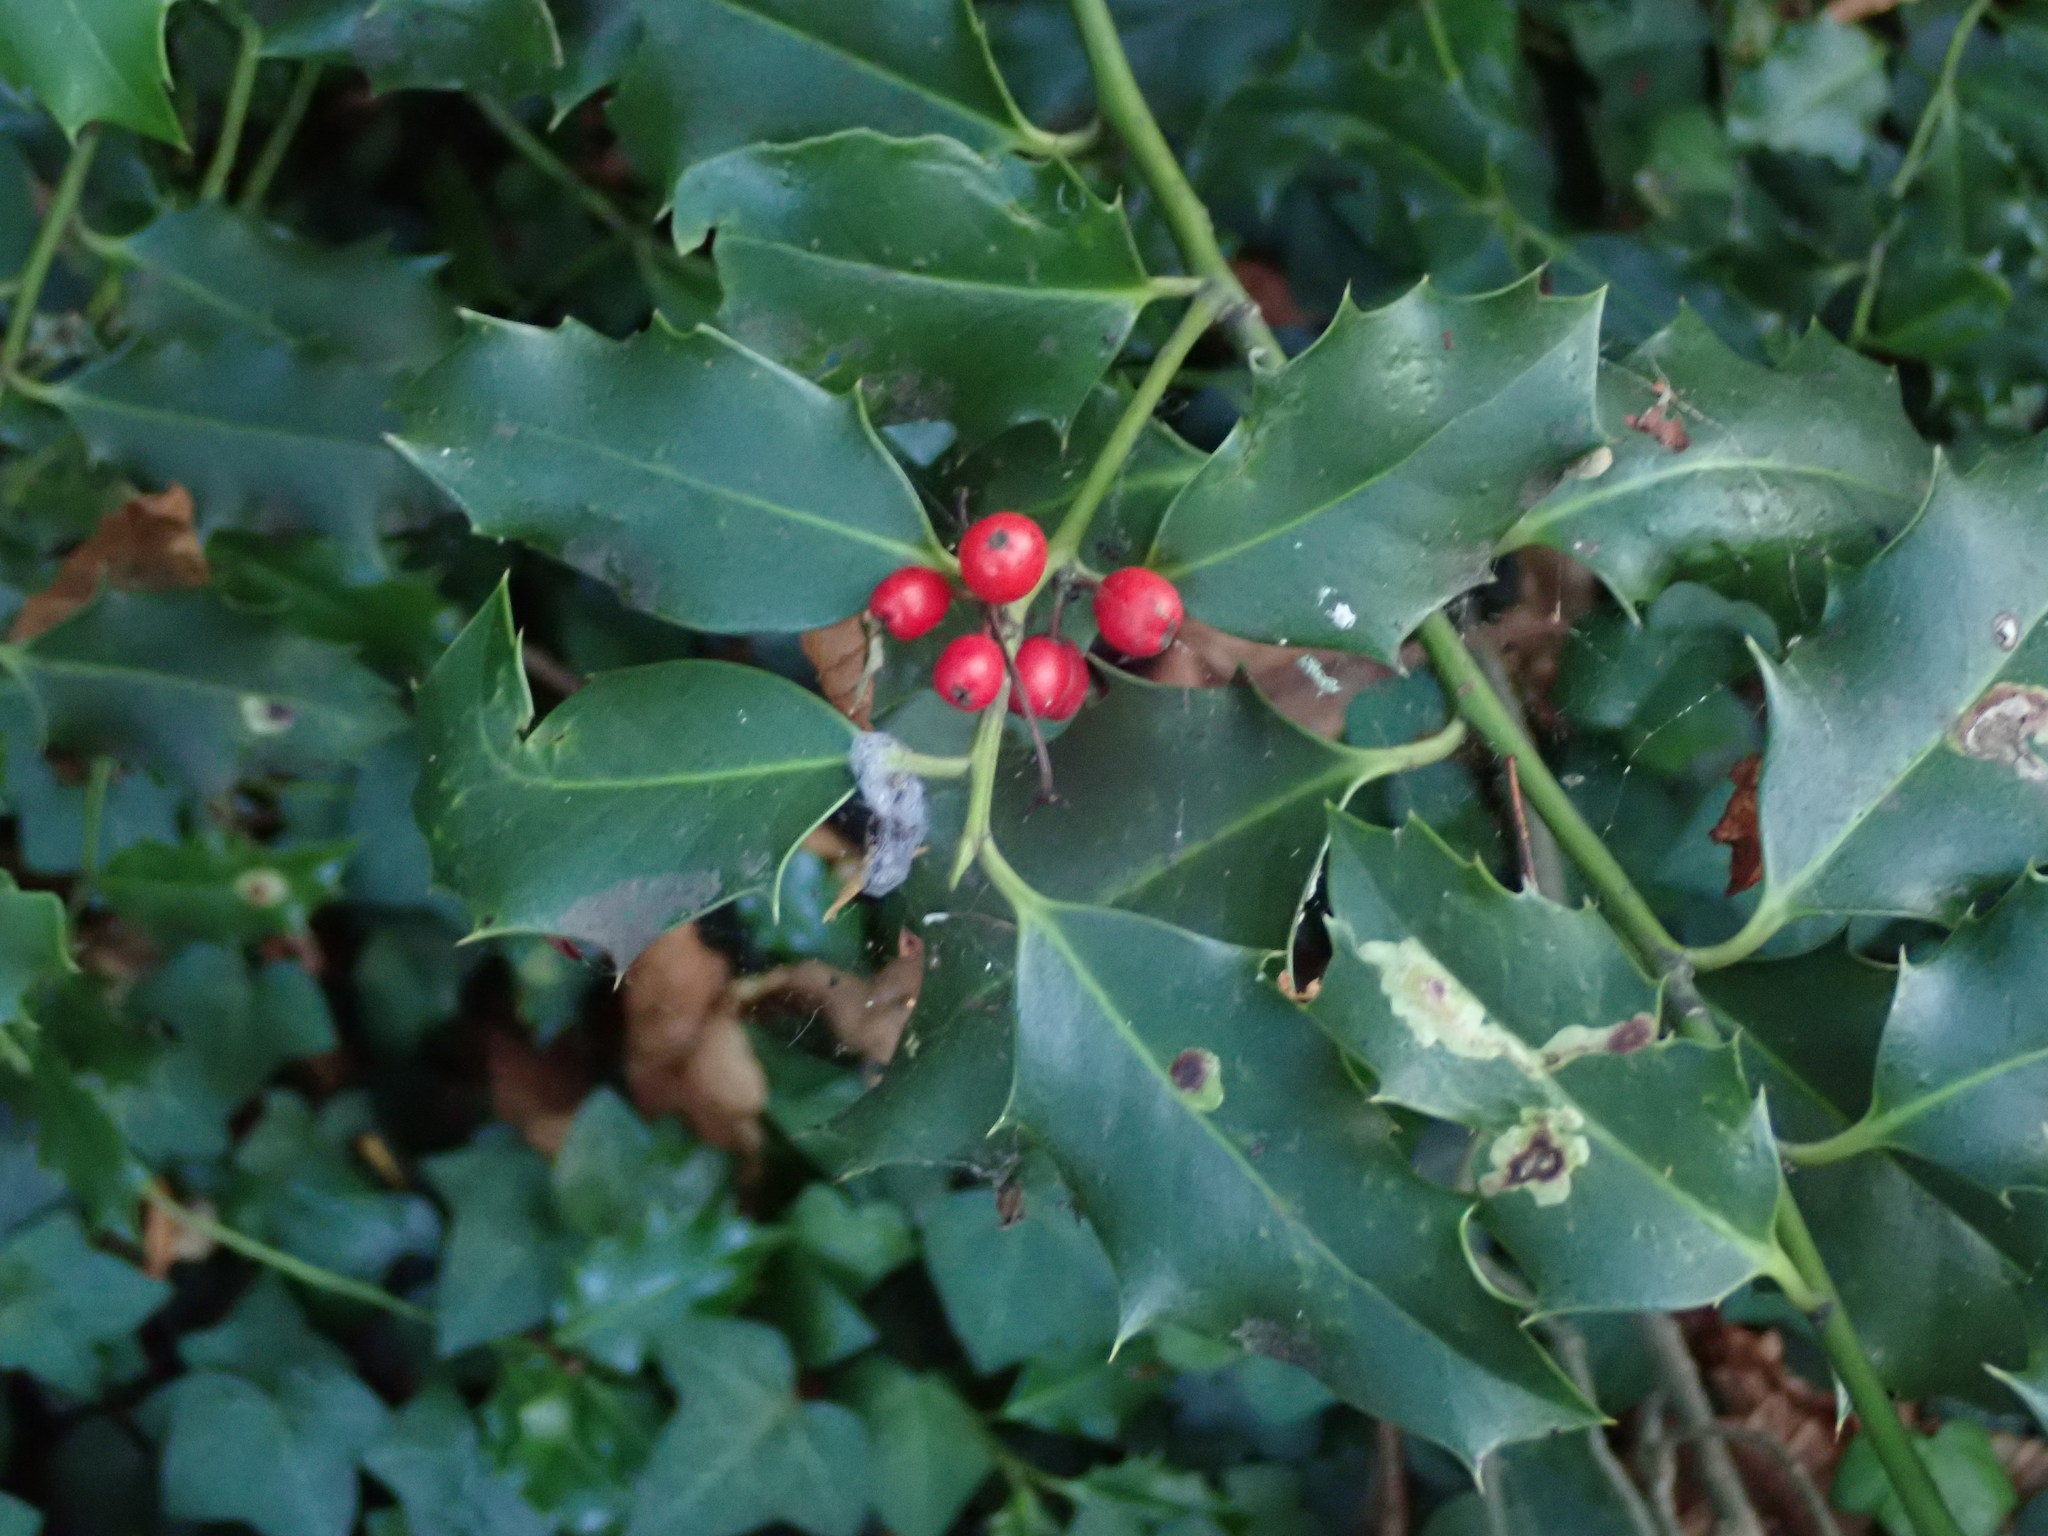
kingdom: Plantae
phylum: Tracheophyta
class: Magnoliopsida
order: Aquifoliales
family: Aquifoliaceae
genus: Ilex
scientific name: Ilex aquifolium
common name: English holly
